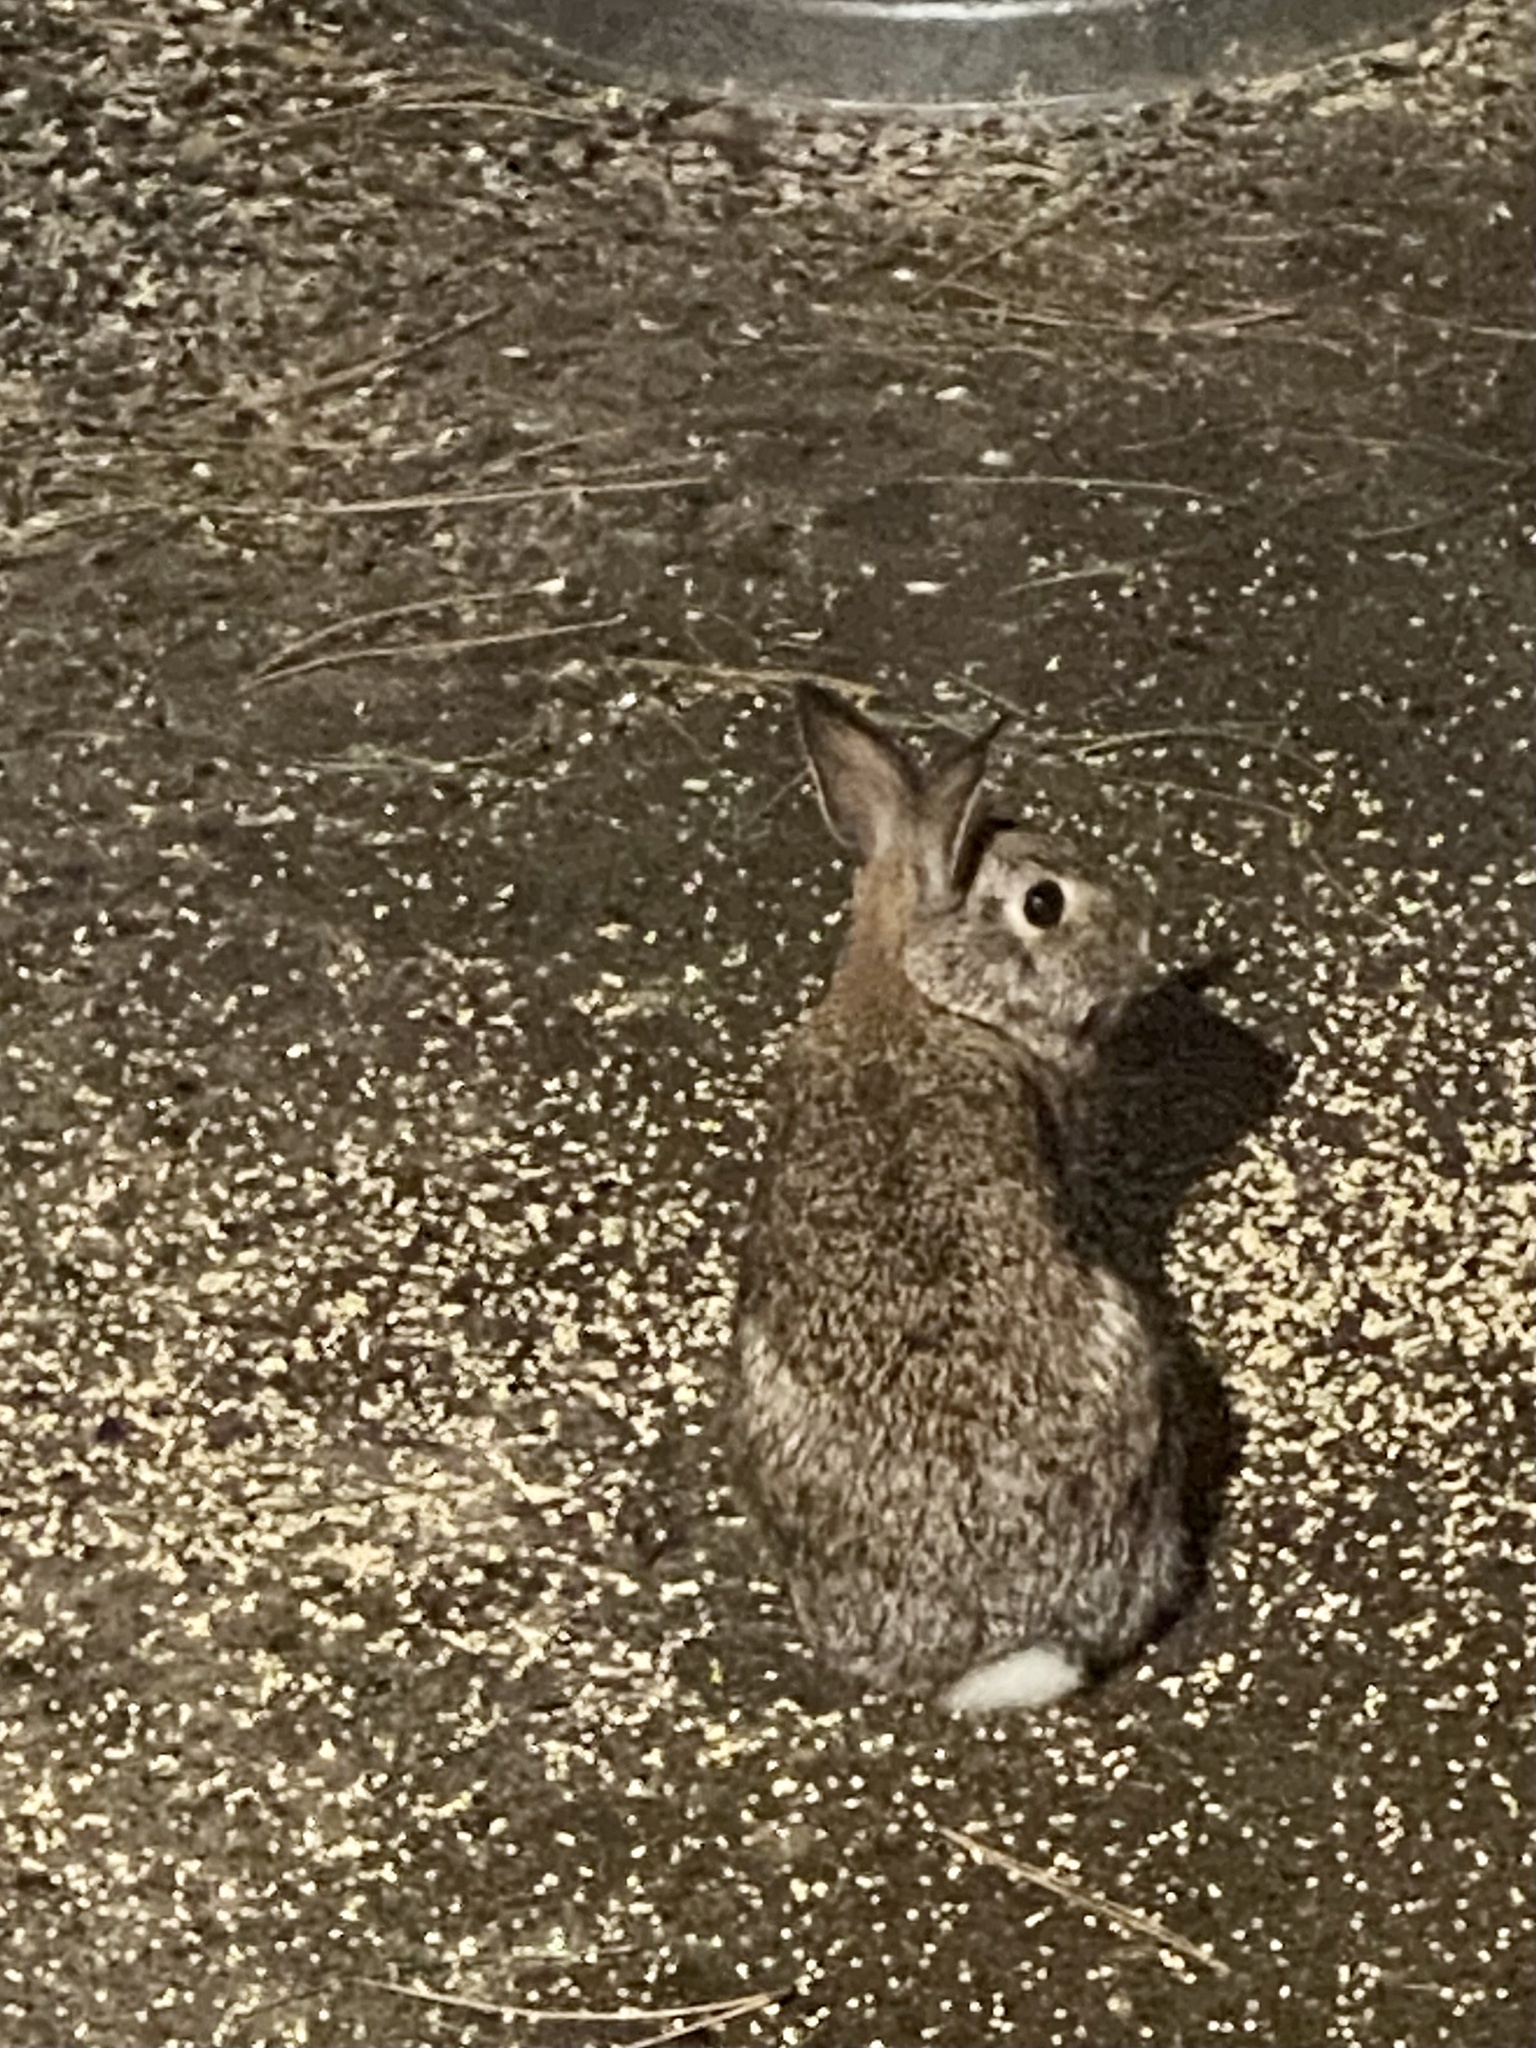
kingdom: Animalia
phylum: Chordata
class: Mammalia
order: Lagomorpha
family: Leporidae
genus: Sylvilagus
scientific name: Sylvilagus floridanus
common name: Eastern cottontail
